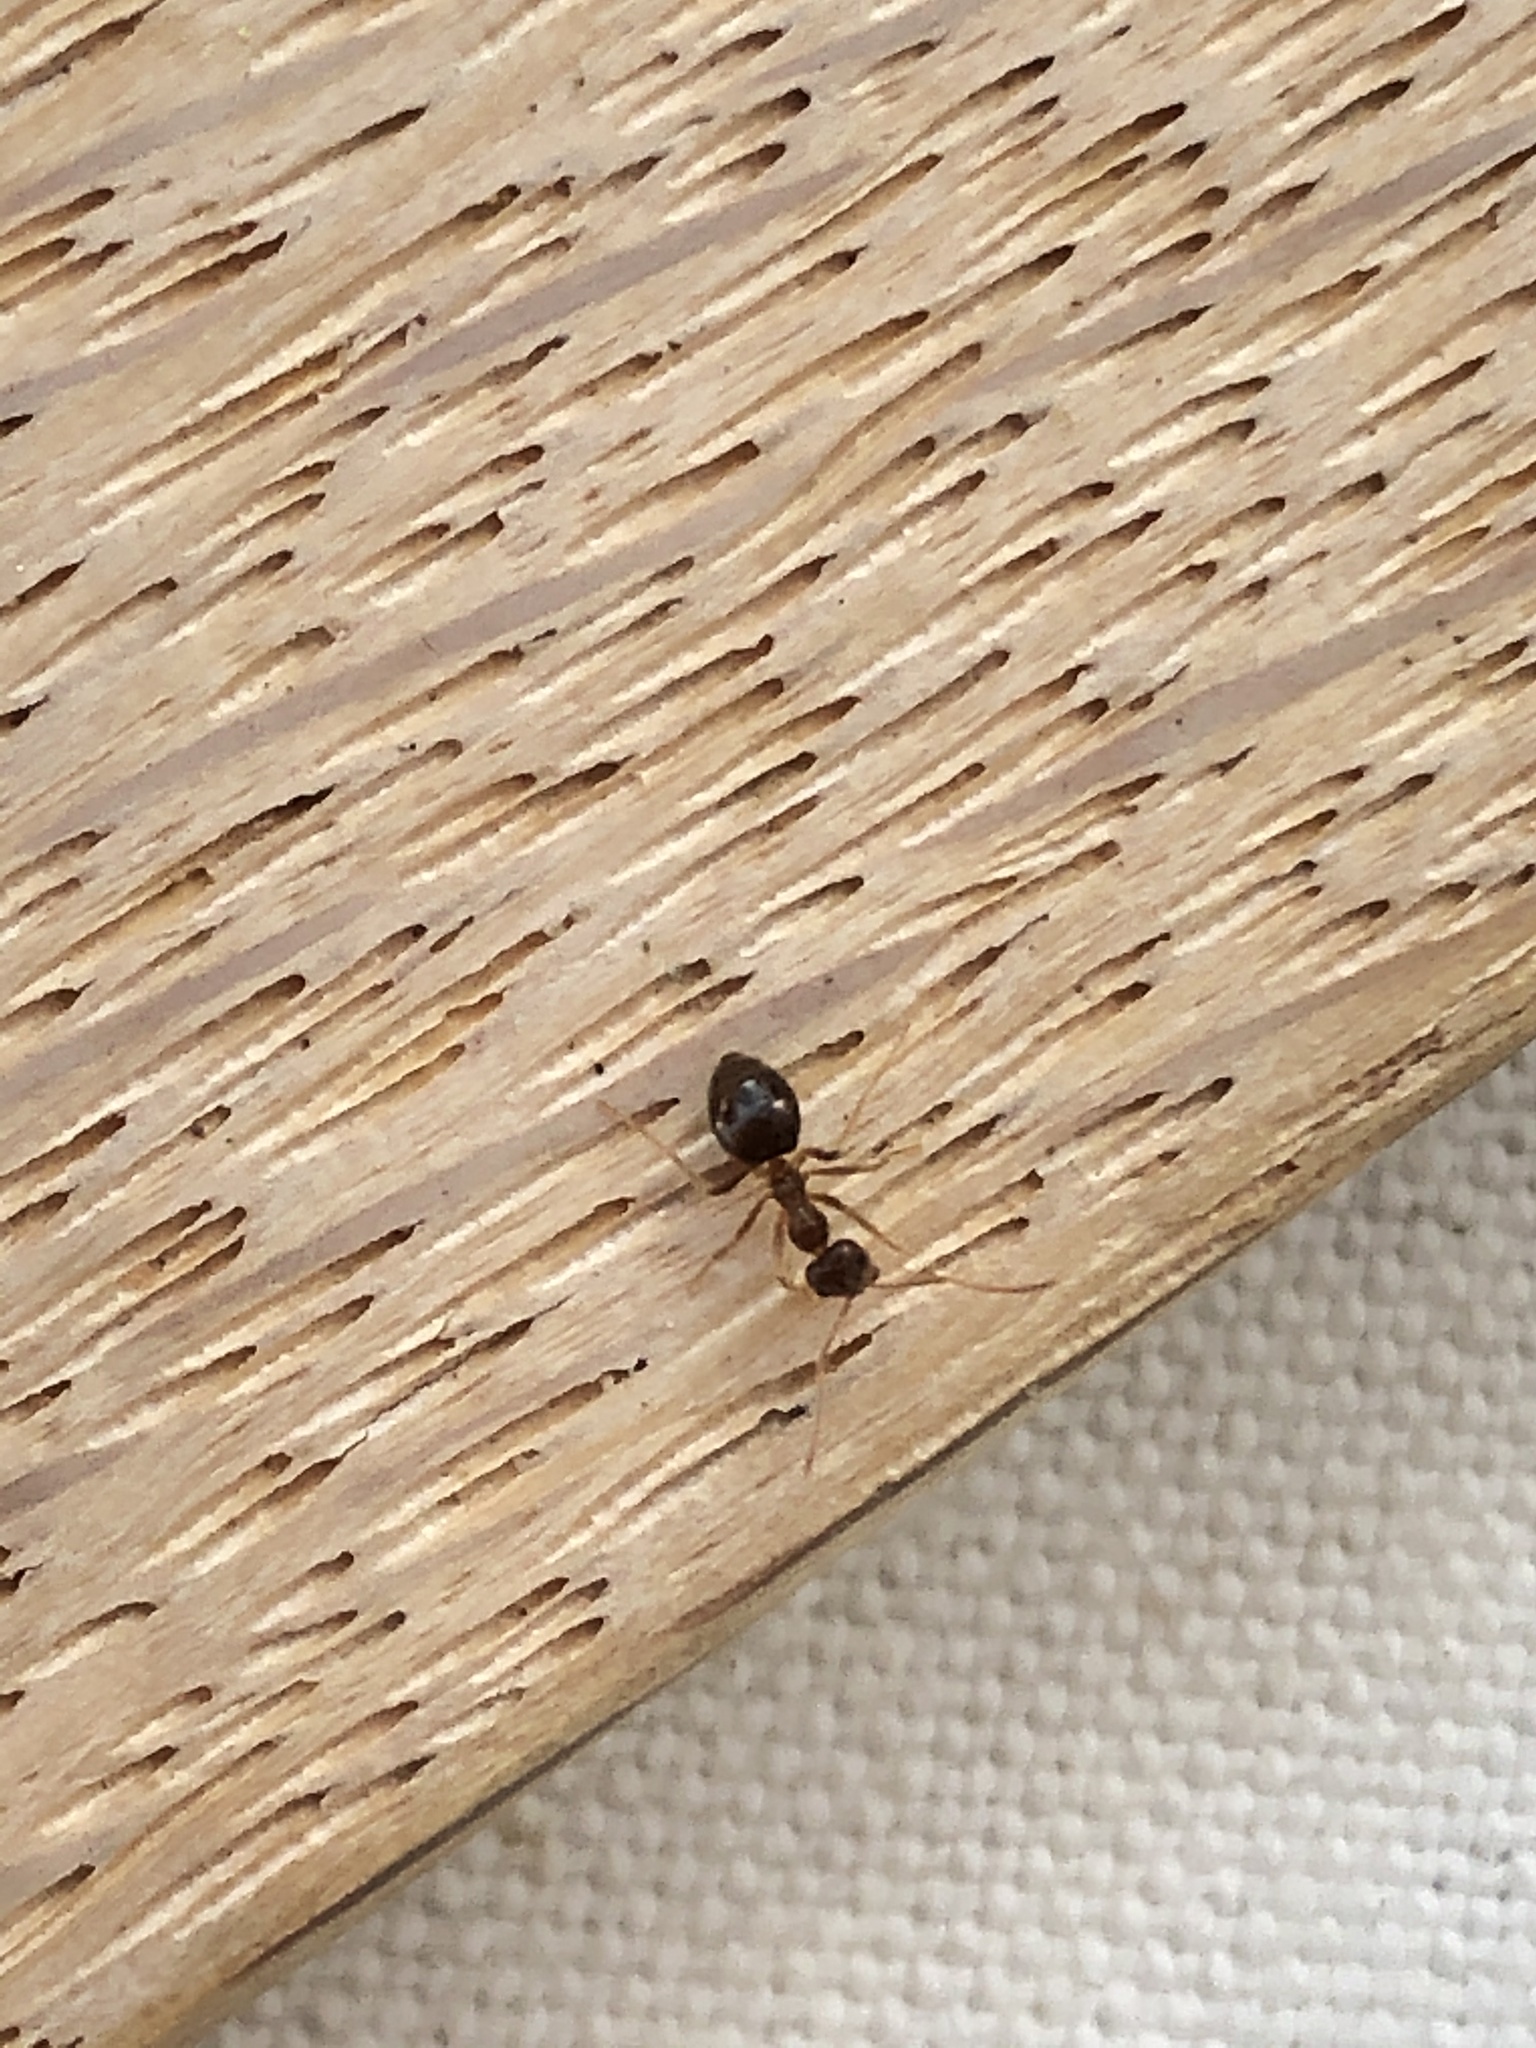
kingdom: Animalia
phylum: Arthropoda
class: Insecta
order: Hymenoptera
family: Formicidae
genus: Prenolepis
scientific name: Prenolepis imparis
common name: Small honey ant
